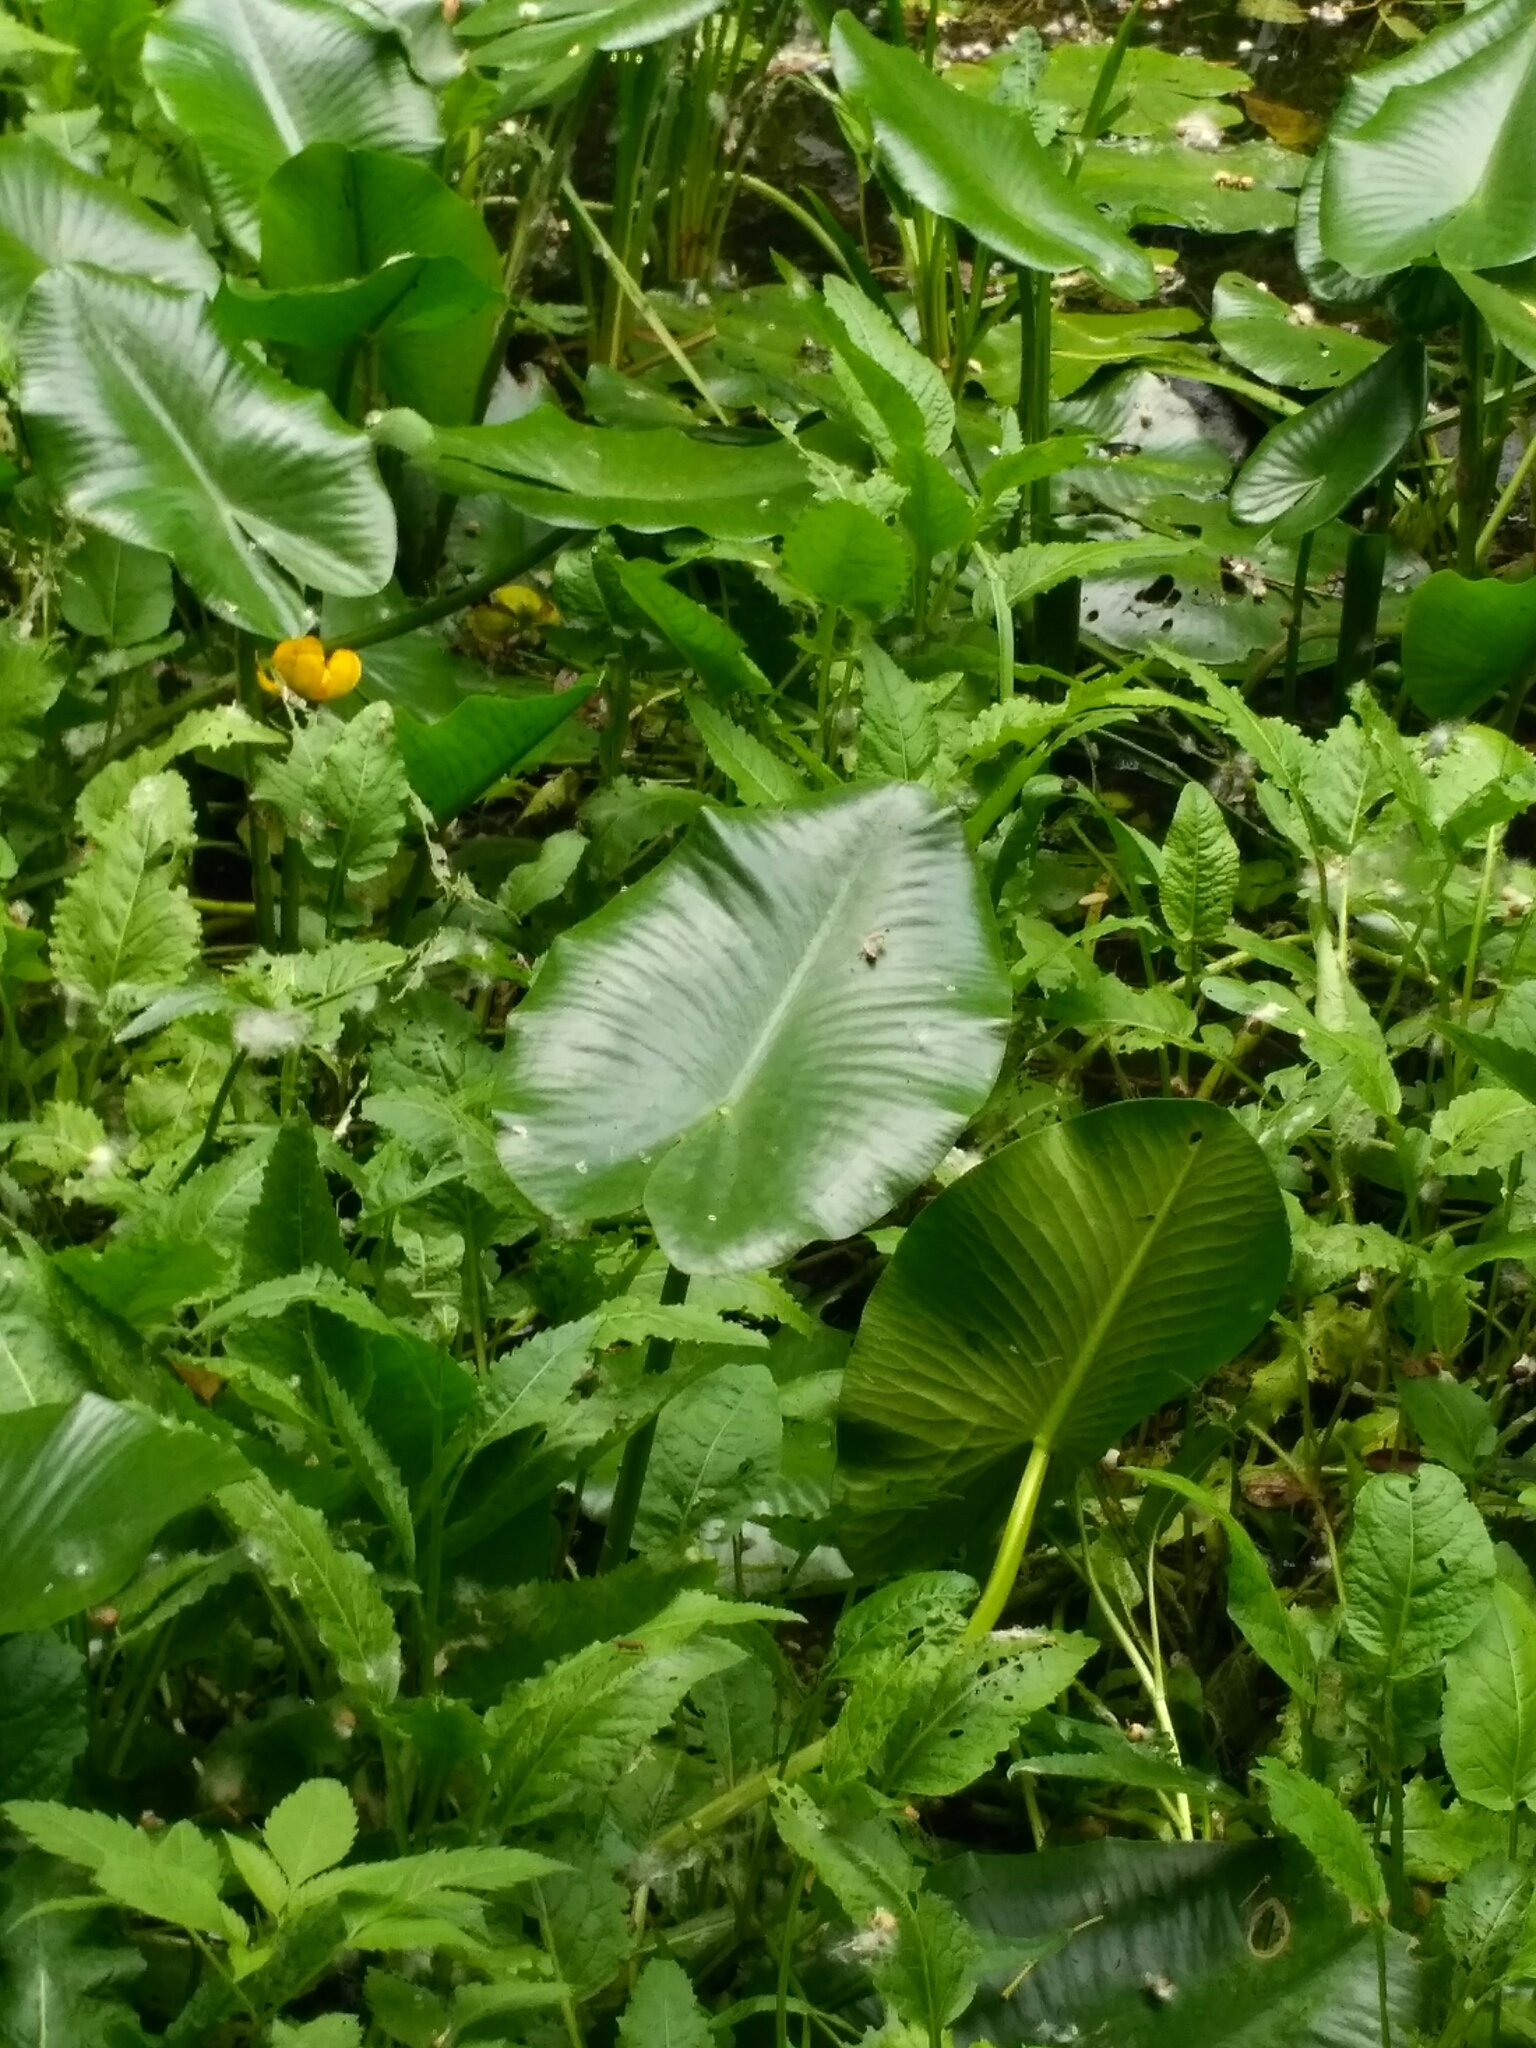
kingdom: Plantae
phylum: Tracheophyta
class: Magnoliopsida
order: Nymphaeales
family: Nymphaeaceae
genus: Nuphar
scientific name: Nuphar lutea
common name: Yellow water-lily
